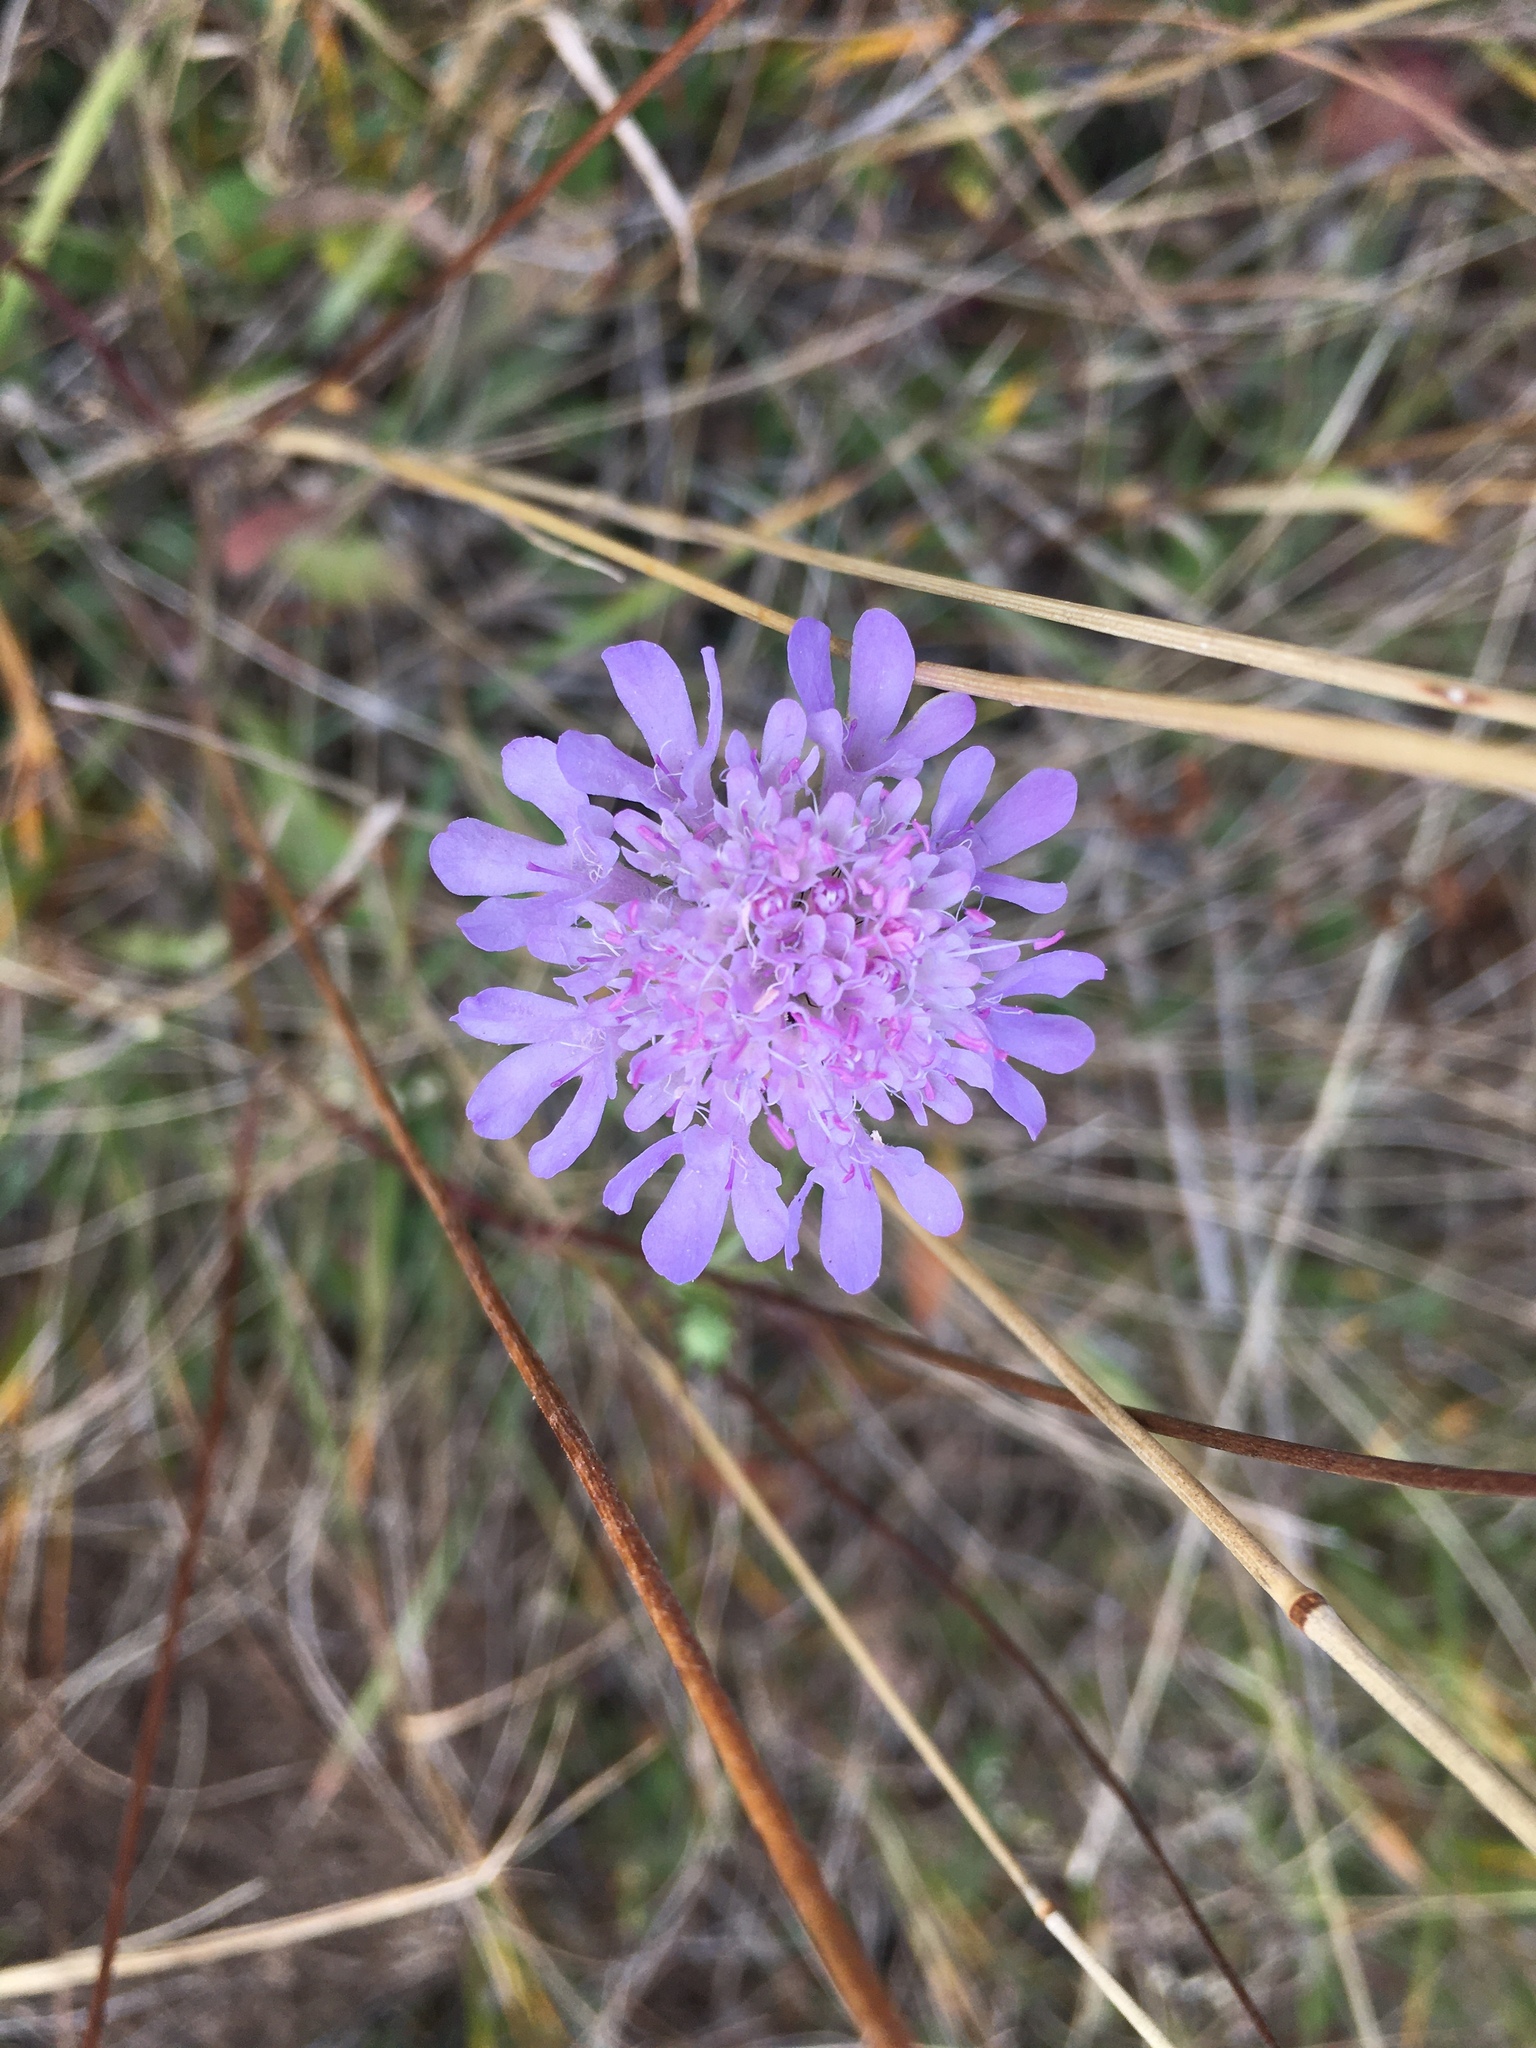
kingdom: Plantae
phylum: Tracheophyta
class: Magnoliopsida
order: Dipsacales
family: Caprifoliaceae
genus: Scabiosa
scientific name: Scabiosa columbaria
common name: Small scabious
